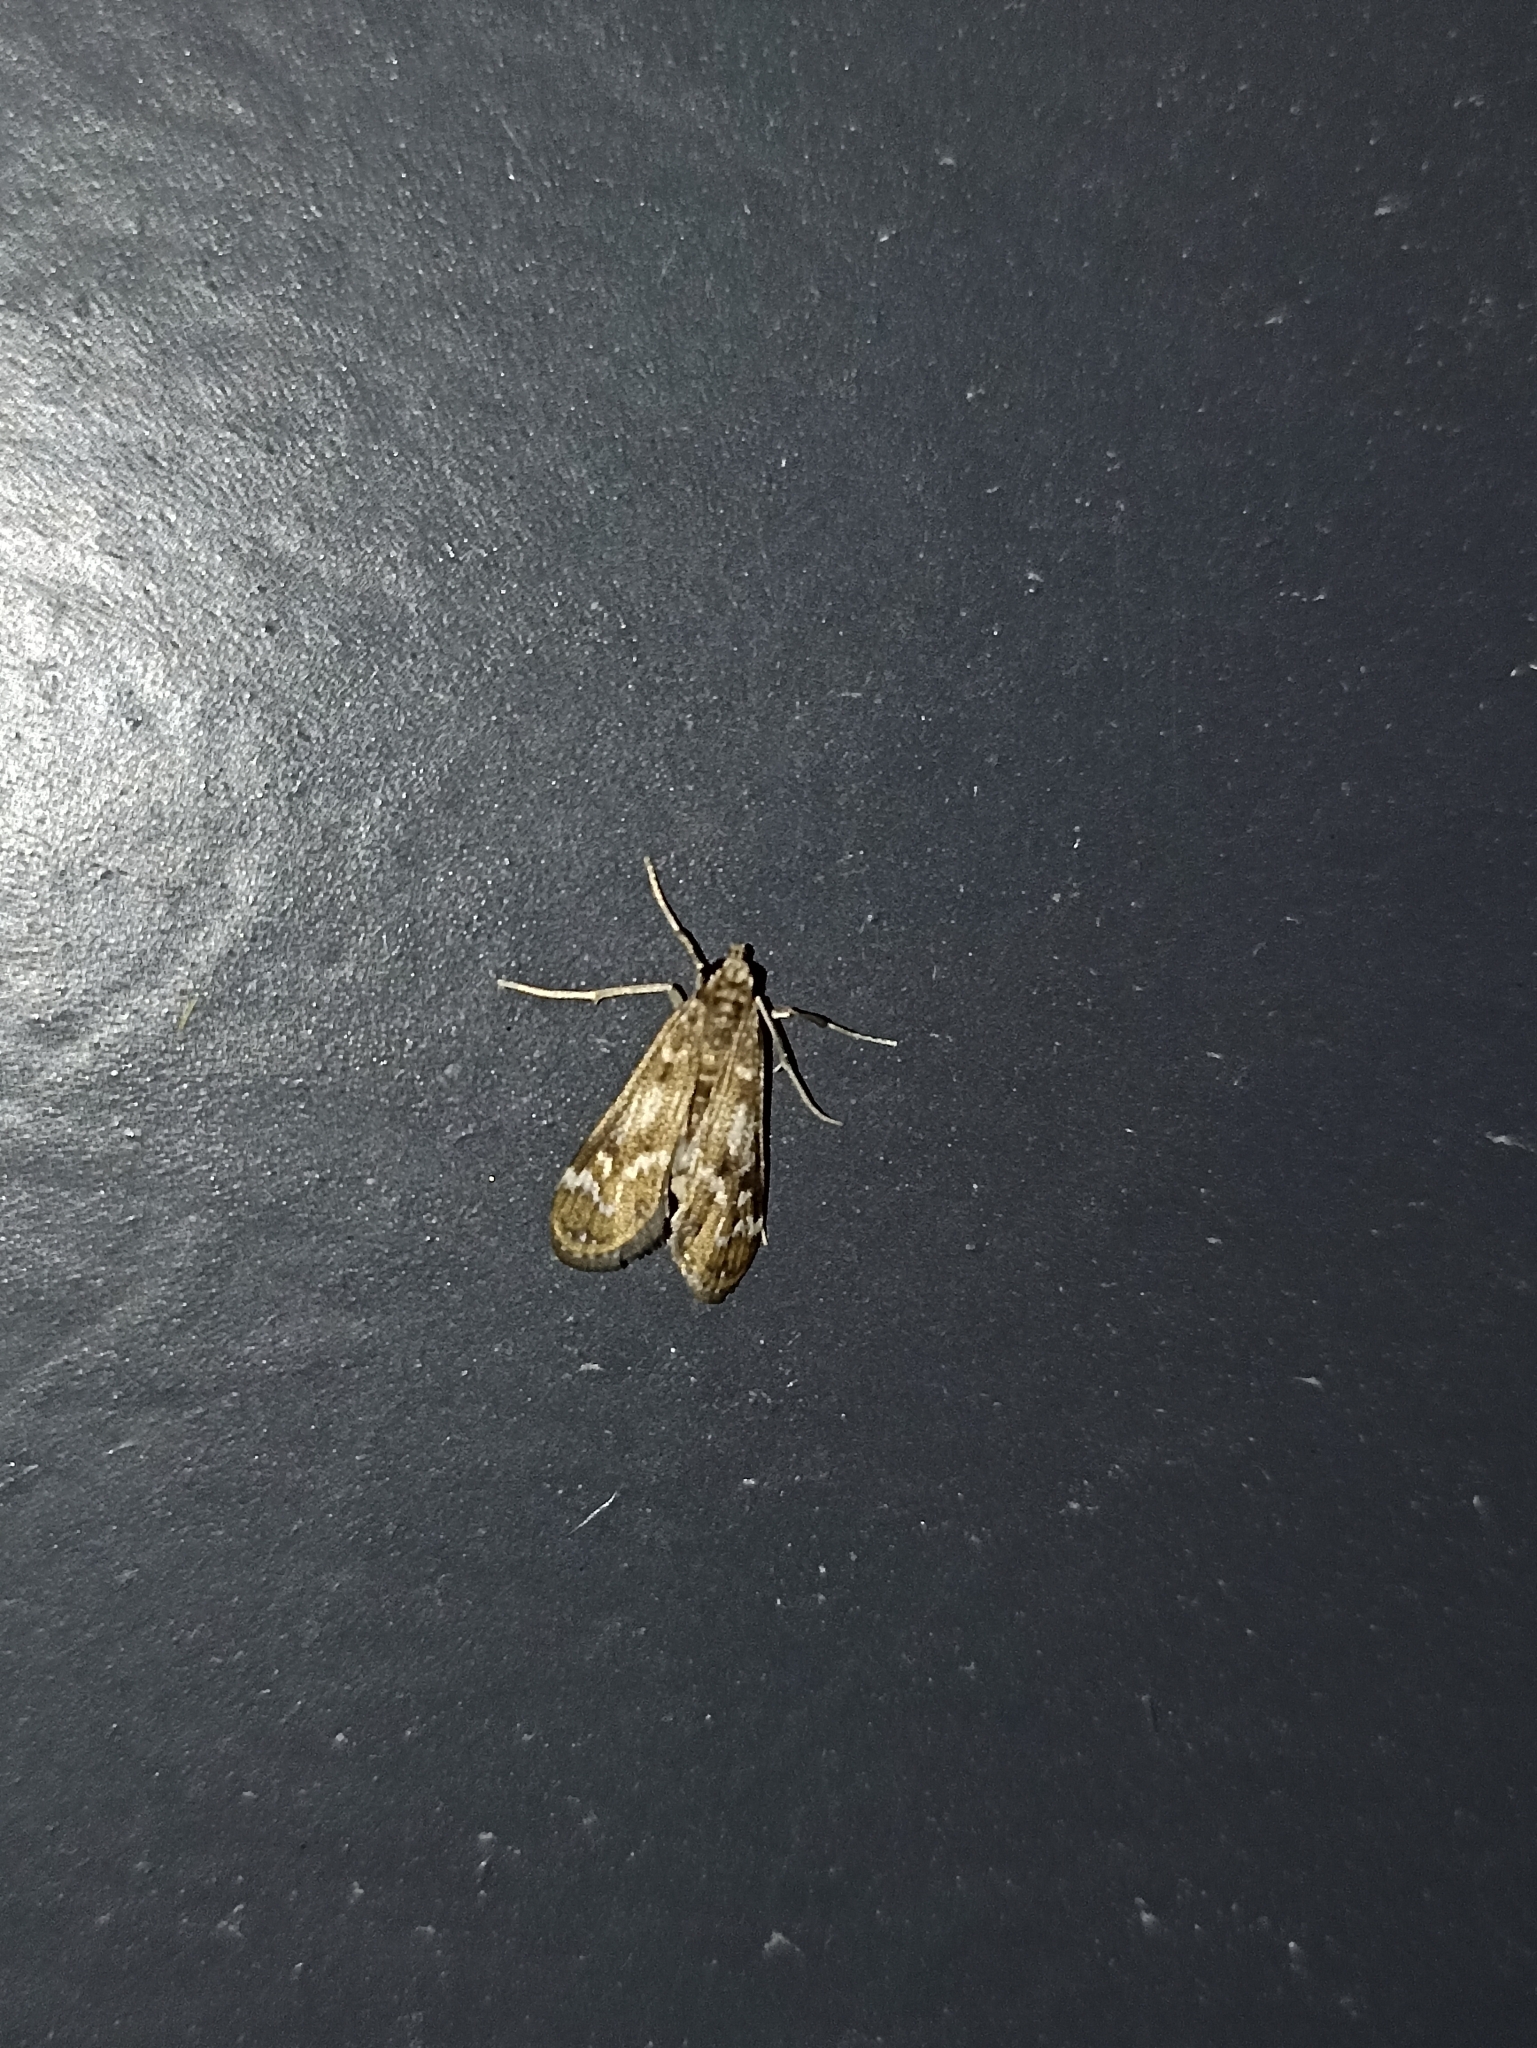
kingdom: Animalia
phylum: Arthropoda
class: Insecta
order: Lepidoptera
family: Crambidae
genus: Hygraula
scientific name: Hygraula nitens
